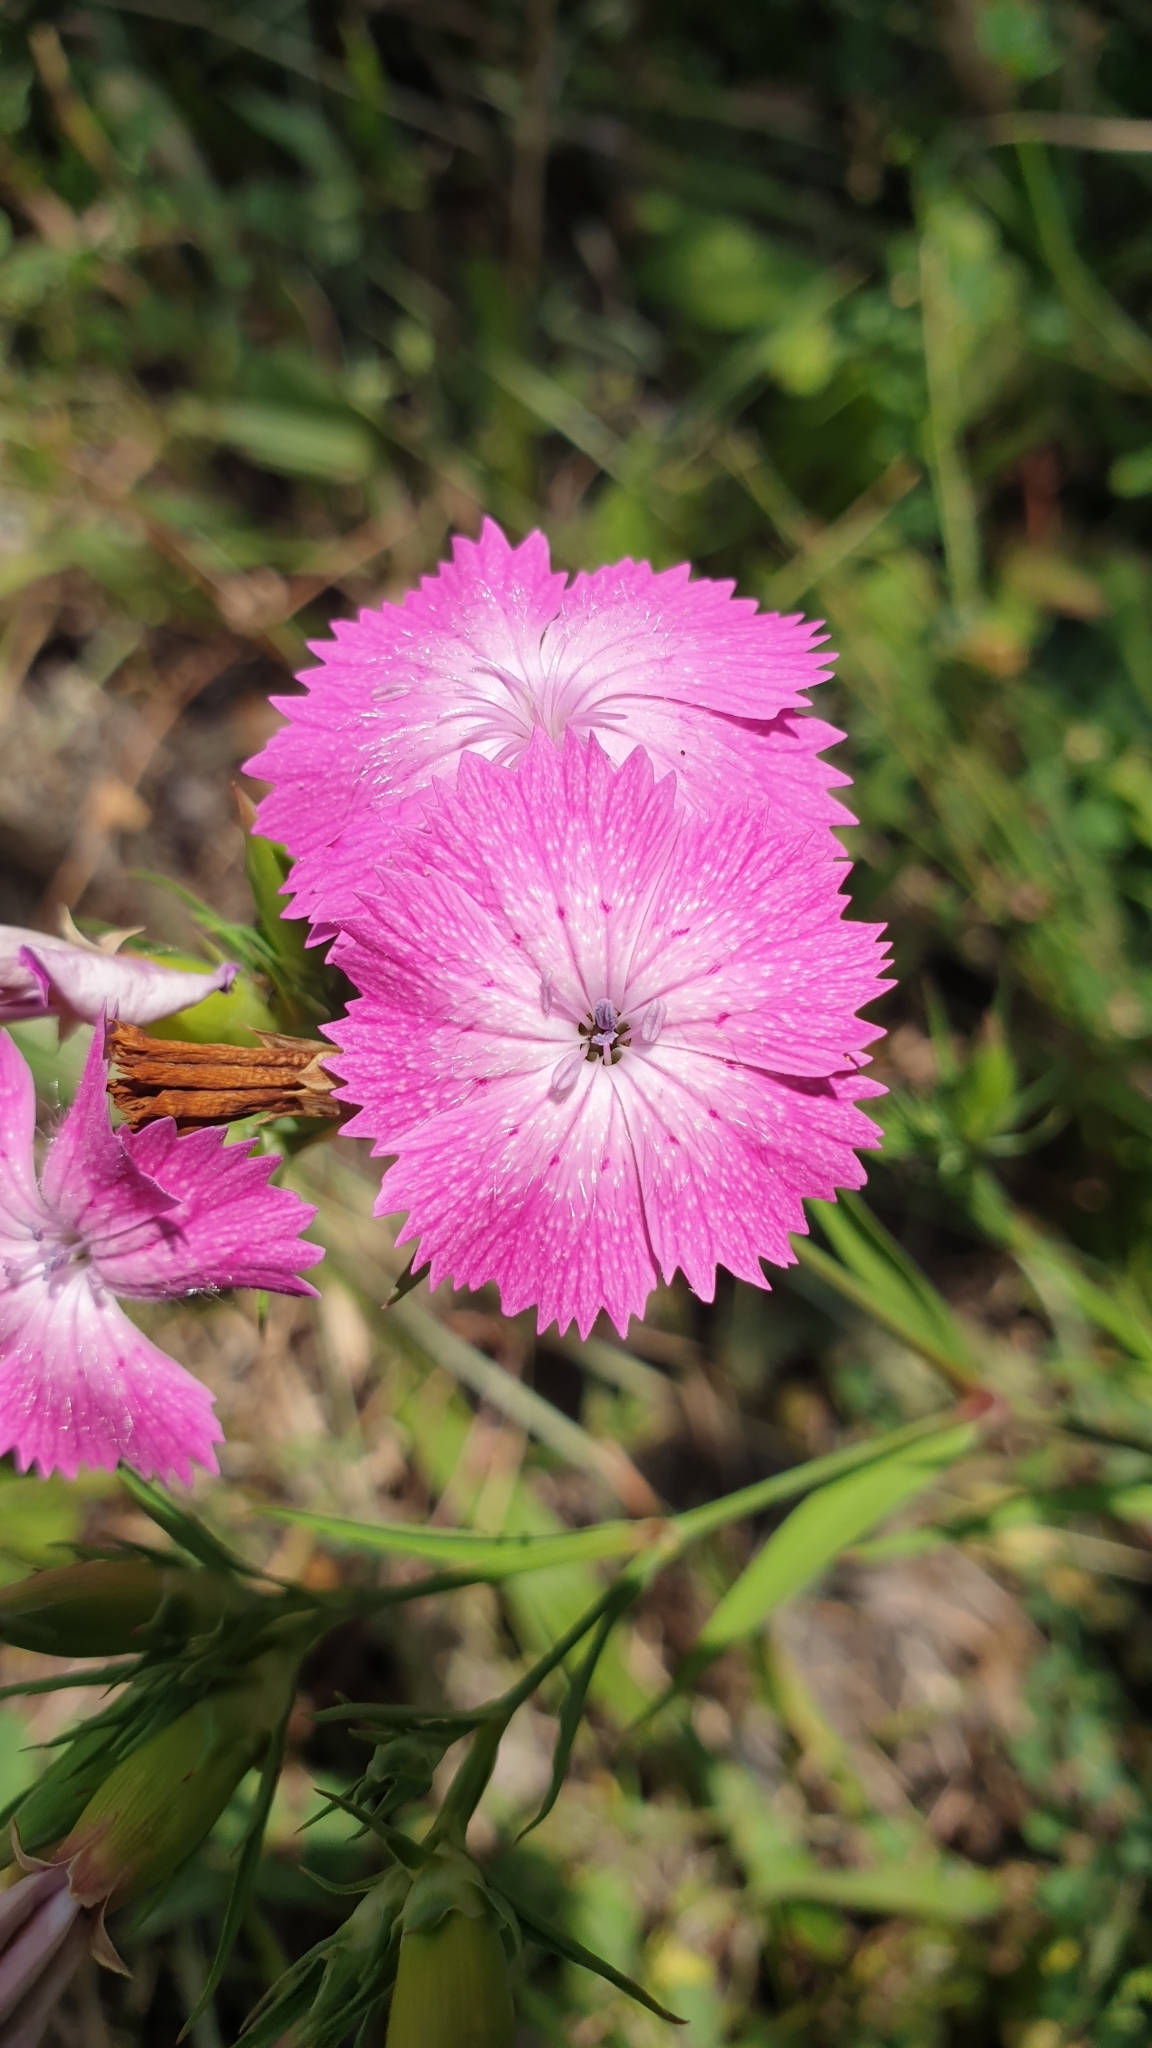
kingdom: Plantae
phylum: Tracheophyta
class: Magnoliopsida
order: Caryophyllales
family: Caryophyllaceae
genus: Dianthus
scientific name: Dianthus caucaseus
